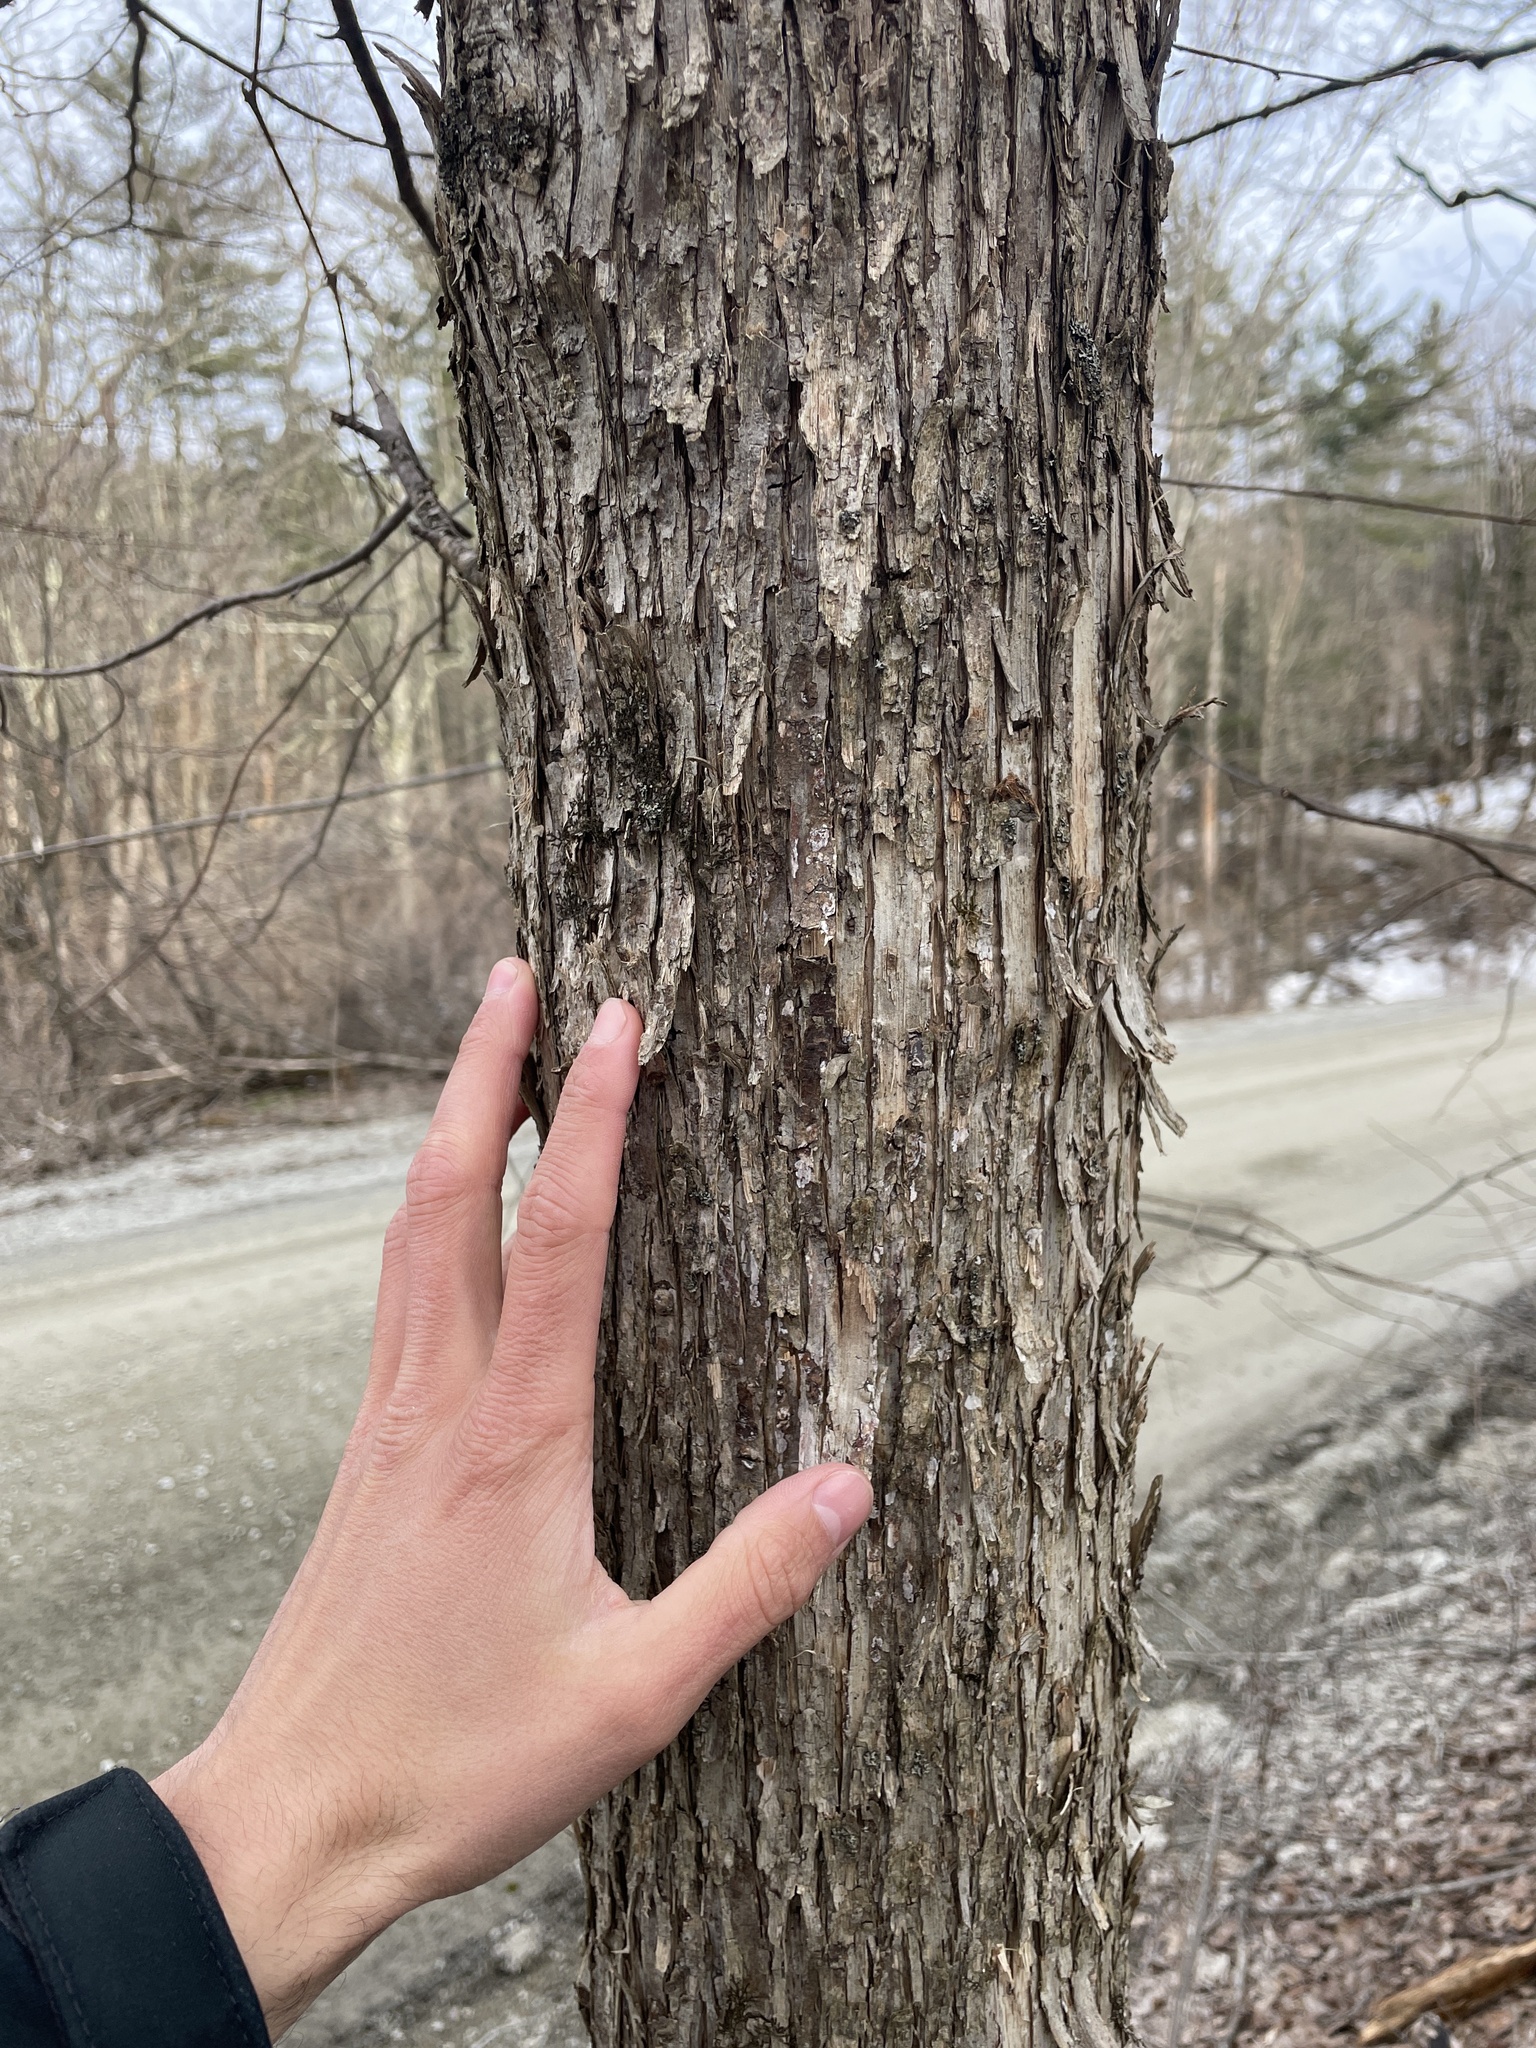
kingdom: Plantae
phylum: Tracheophyta
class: Magnoliopsida
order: Fagales
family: Betulaceae
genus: Ostrya
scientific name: Ostrya virginiana
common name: Ironwood
